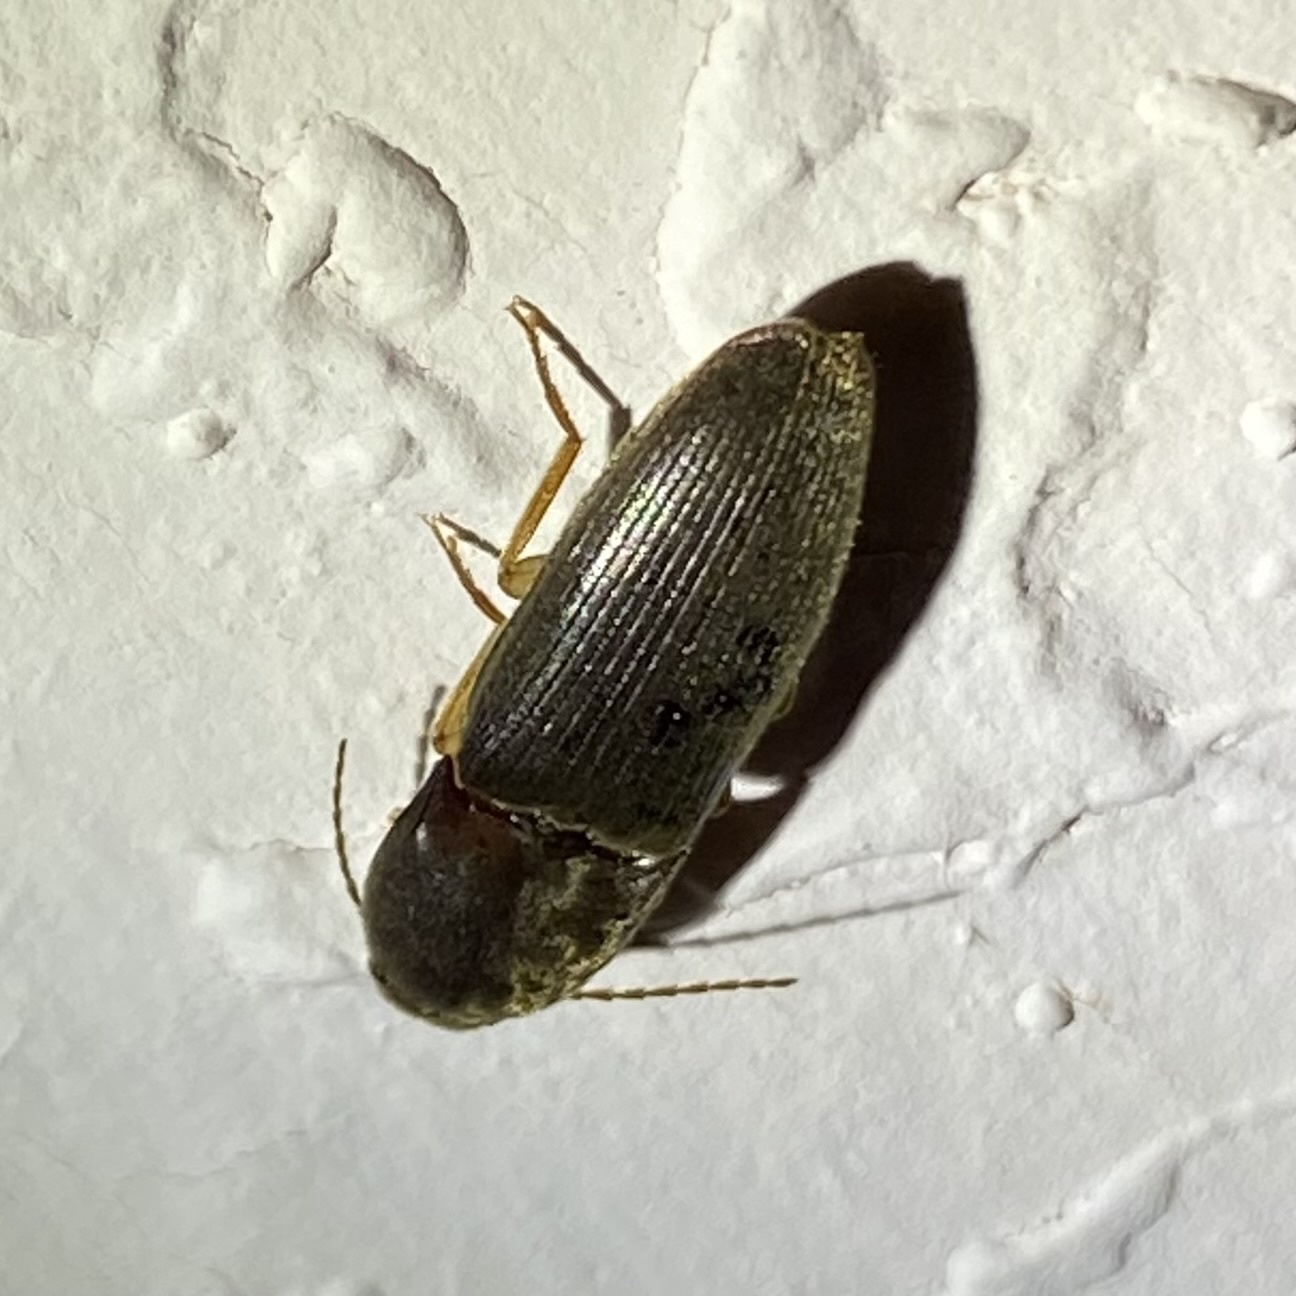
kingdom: Animalia
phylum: Arthropoda
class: Insecta
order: Coleoptera
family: Elateridae
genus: Esthesopus
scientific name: Esthesopus
